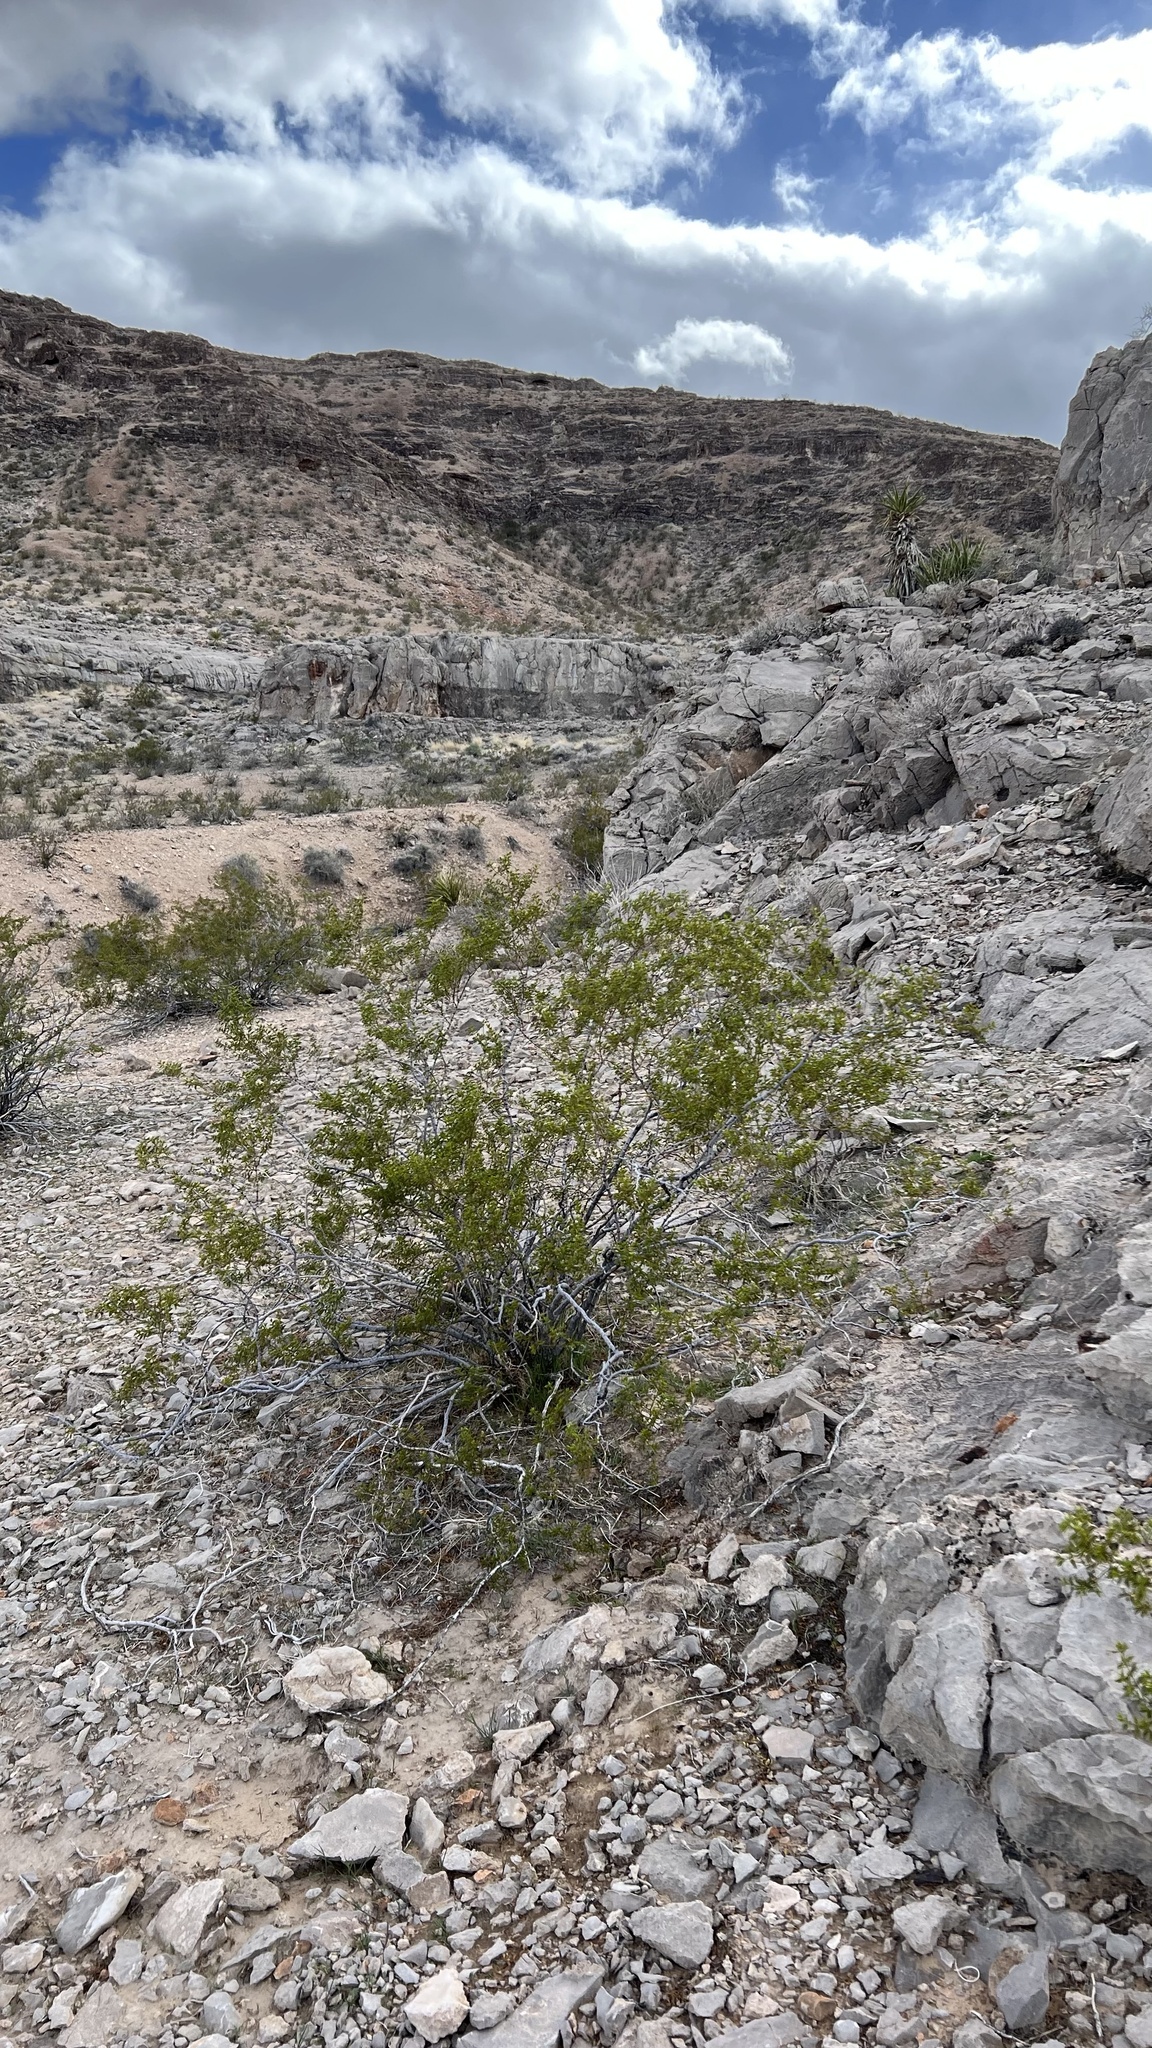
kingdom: Plantae
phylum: Tracheophyta
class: Magnoliopsida
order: Zygophyllales
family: Zygophyllaceae
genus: Larrea
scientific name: Larrea tridentata
